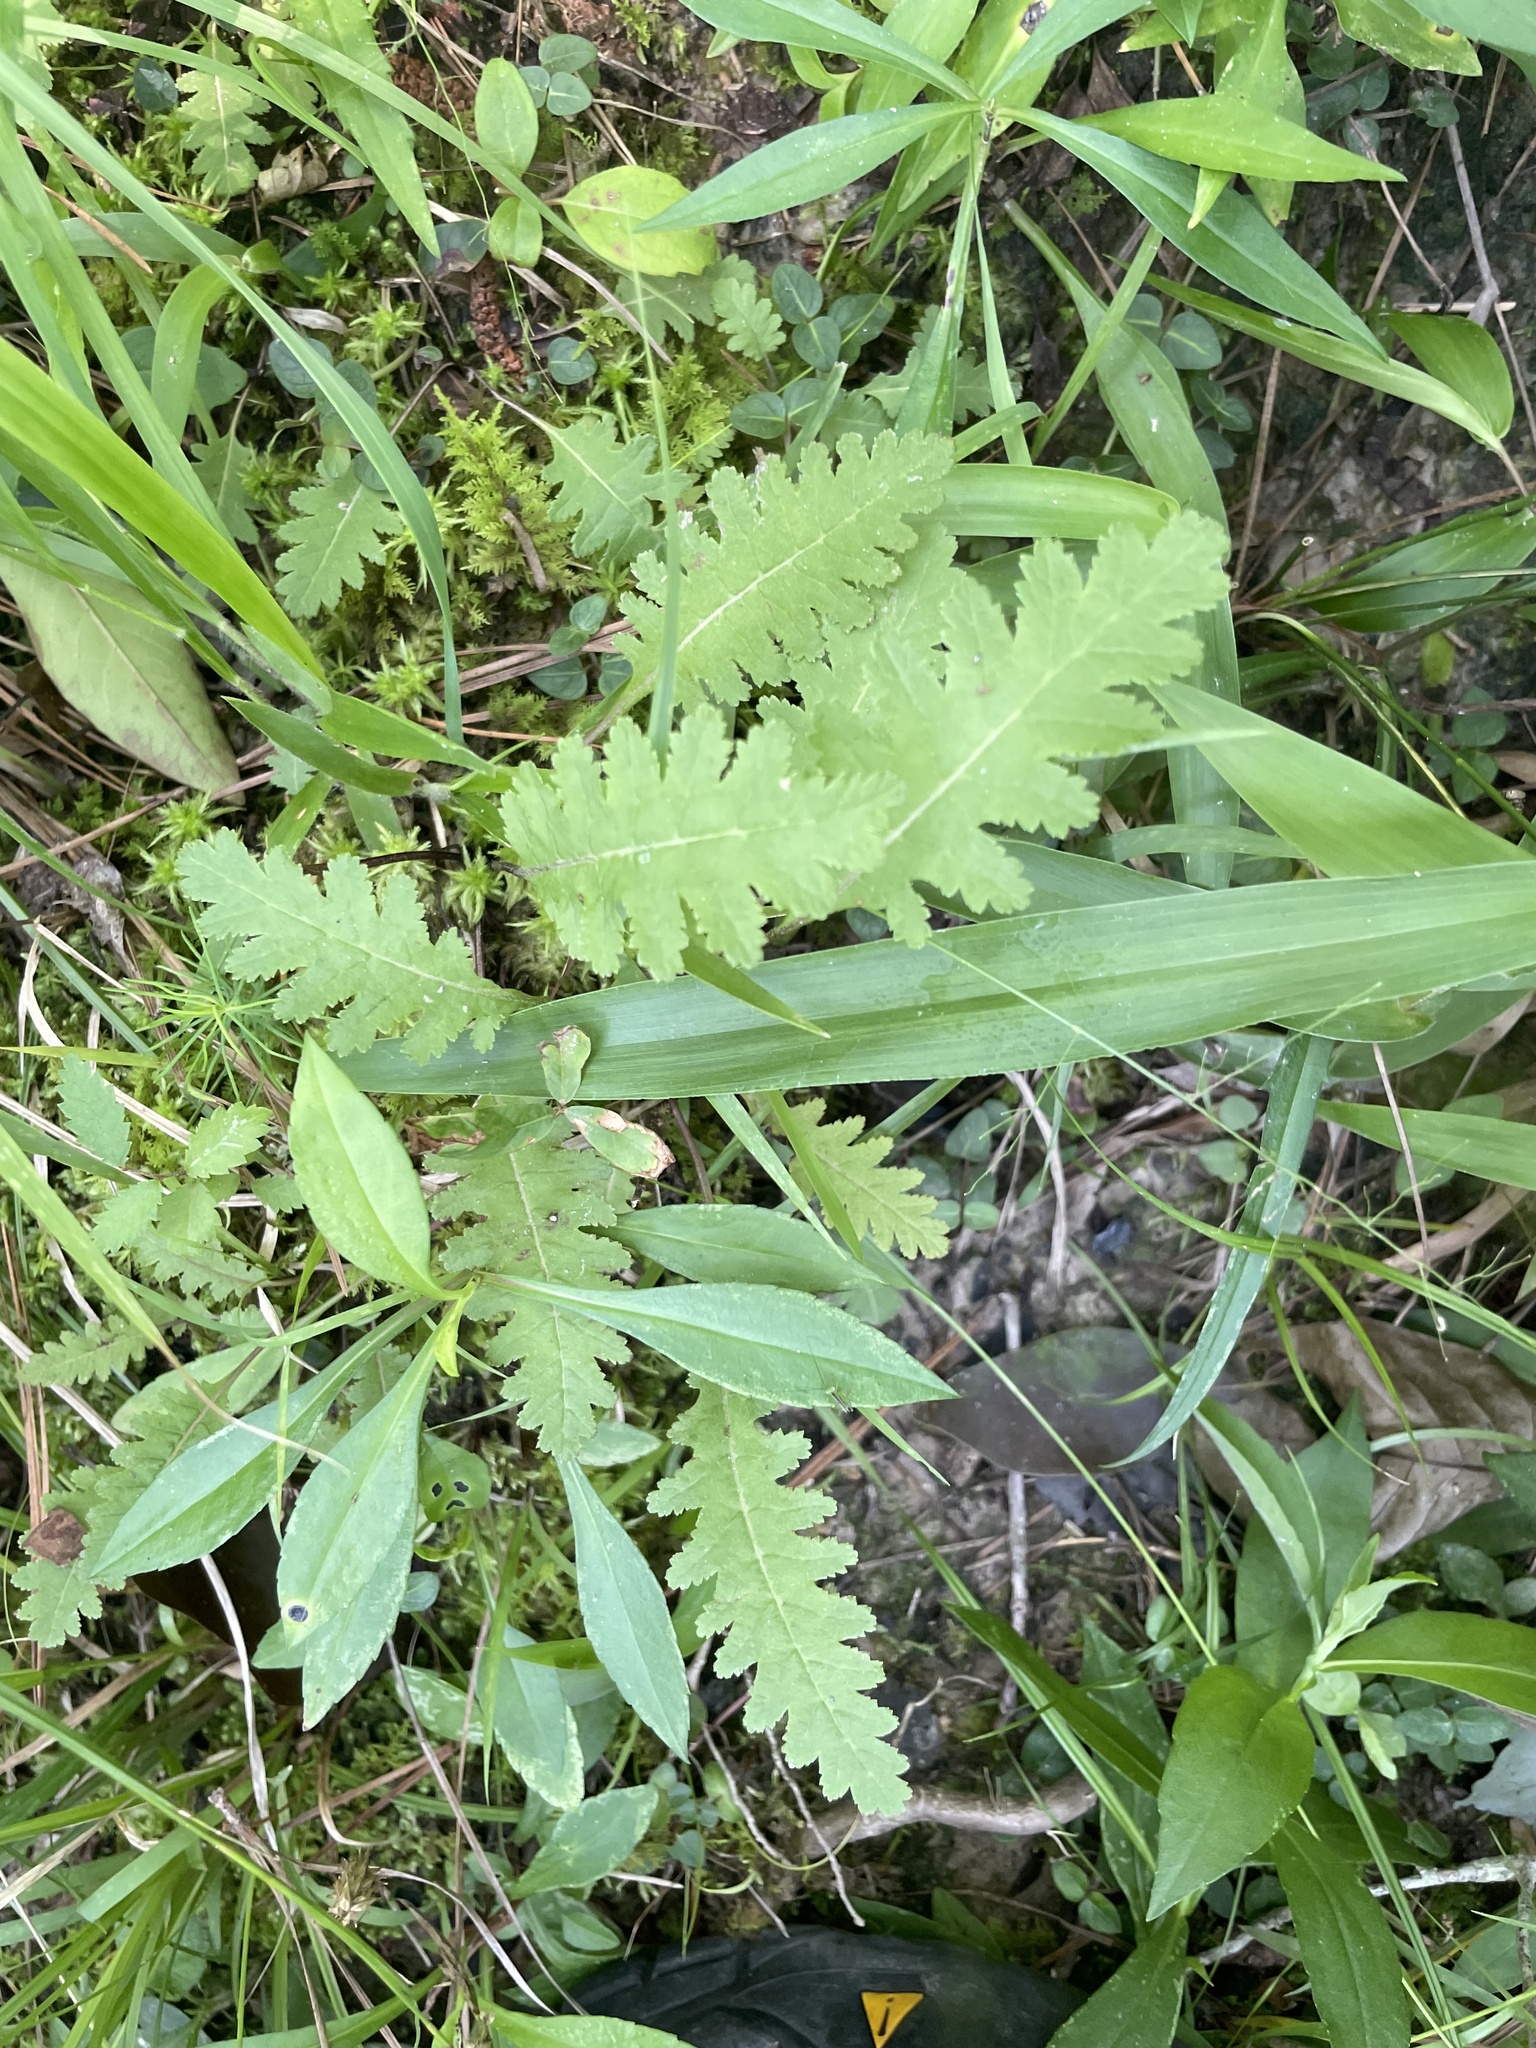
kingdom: Plantae
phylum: Tracheophyta
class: Magnoliopsida
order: Lamiales
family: Orobanchaceae
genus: Pedicularis
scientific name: Pedicularis canadensis
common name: Early lousewort
